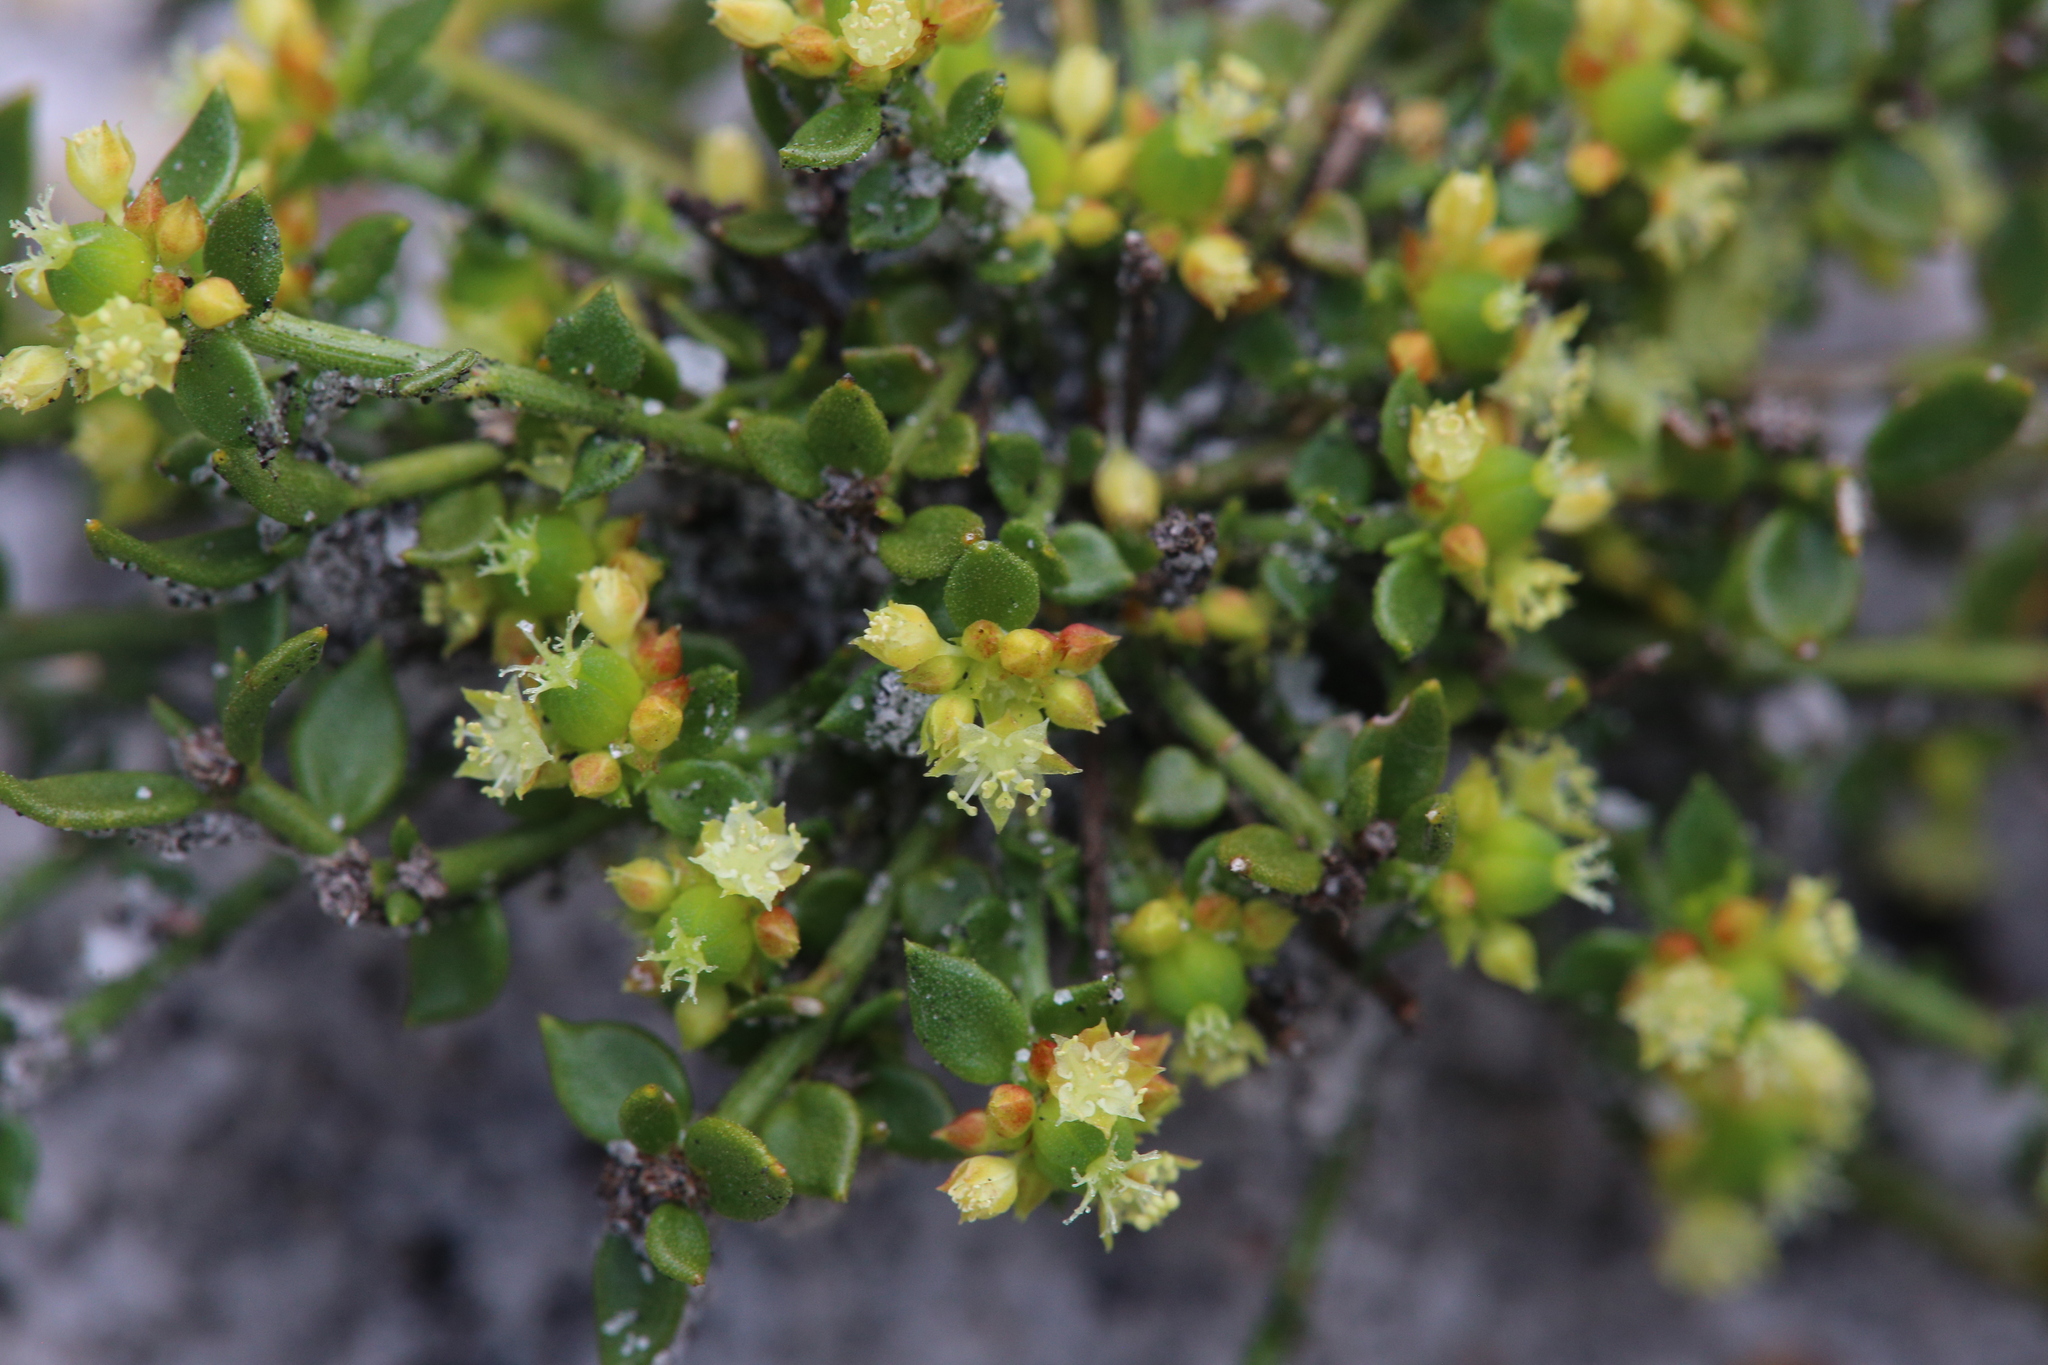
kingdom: Plantae
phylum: Tracheophyta
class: Magnoliopsida
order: Malpighiales
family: Euphorbiaceae
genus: Monotaxis
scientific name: Monotaxis occidentalis
